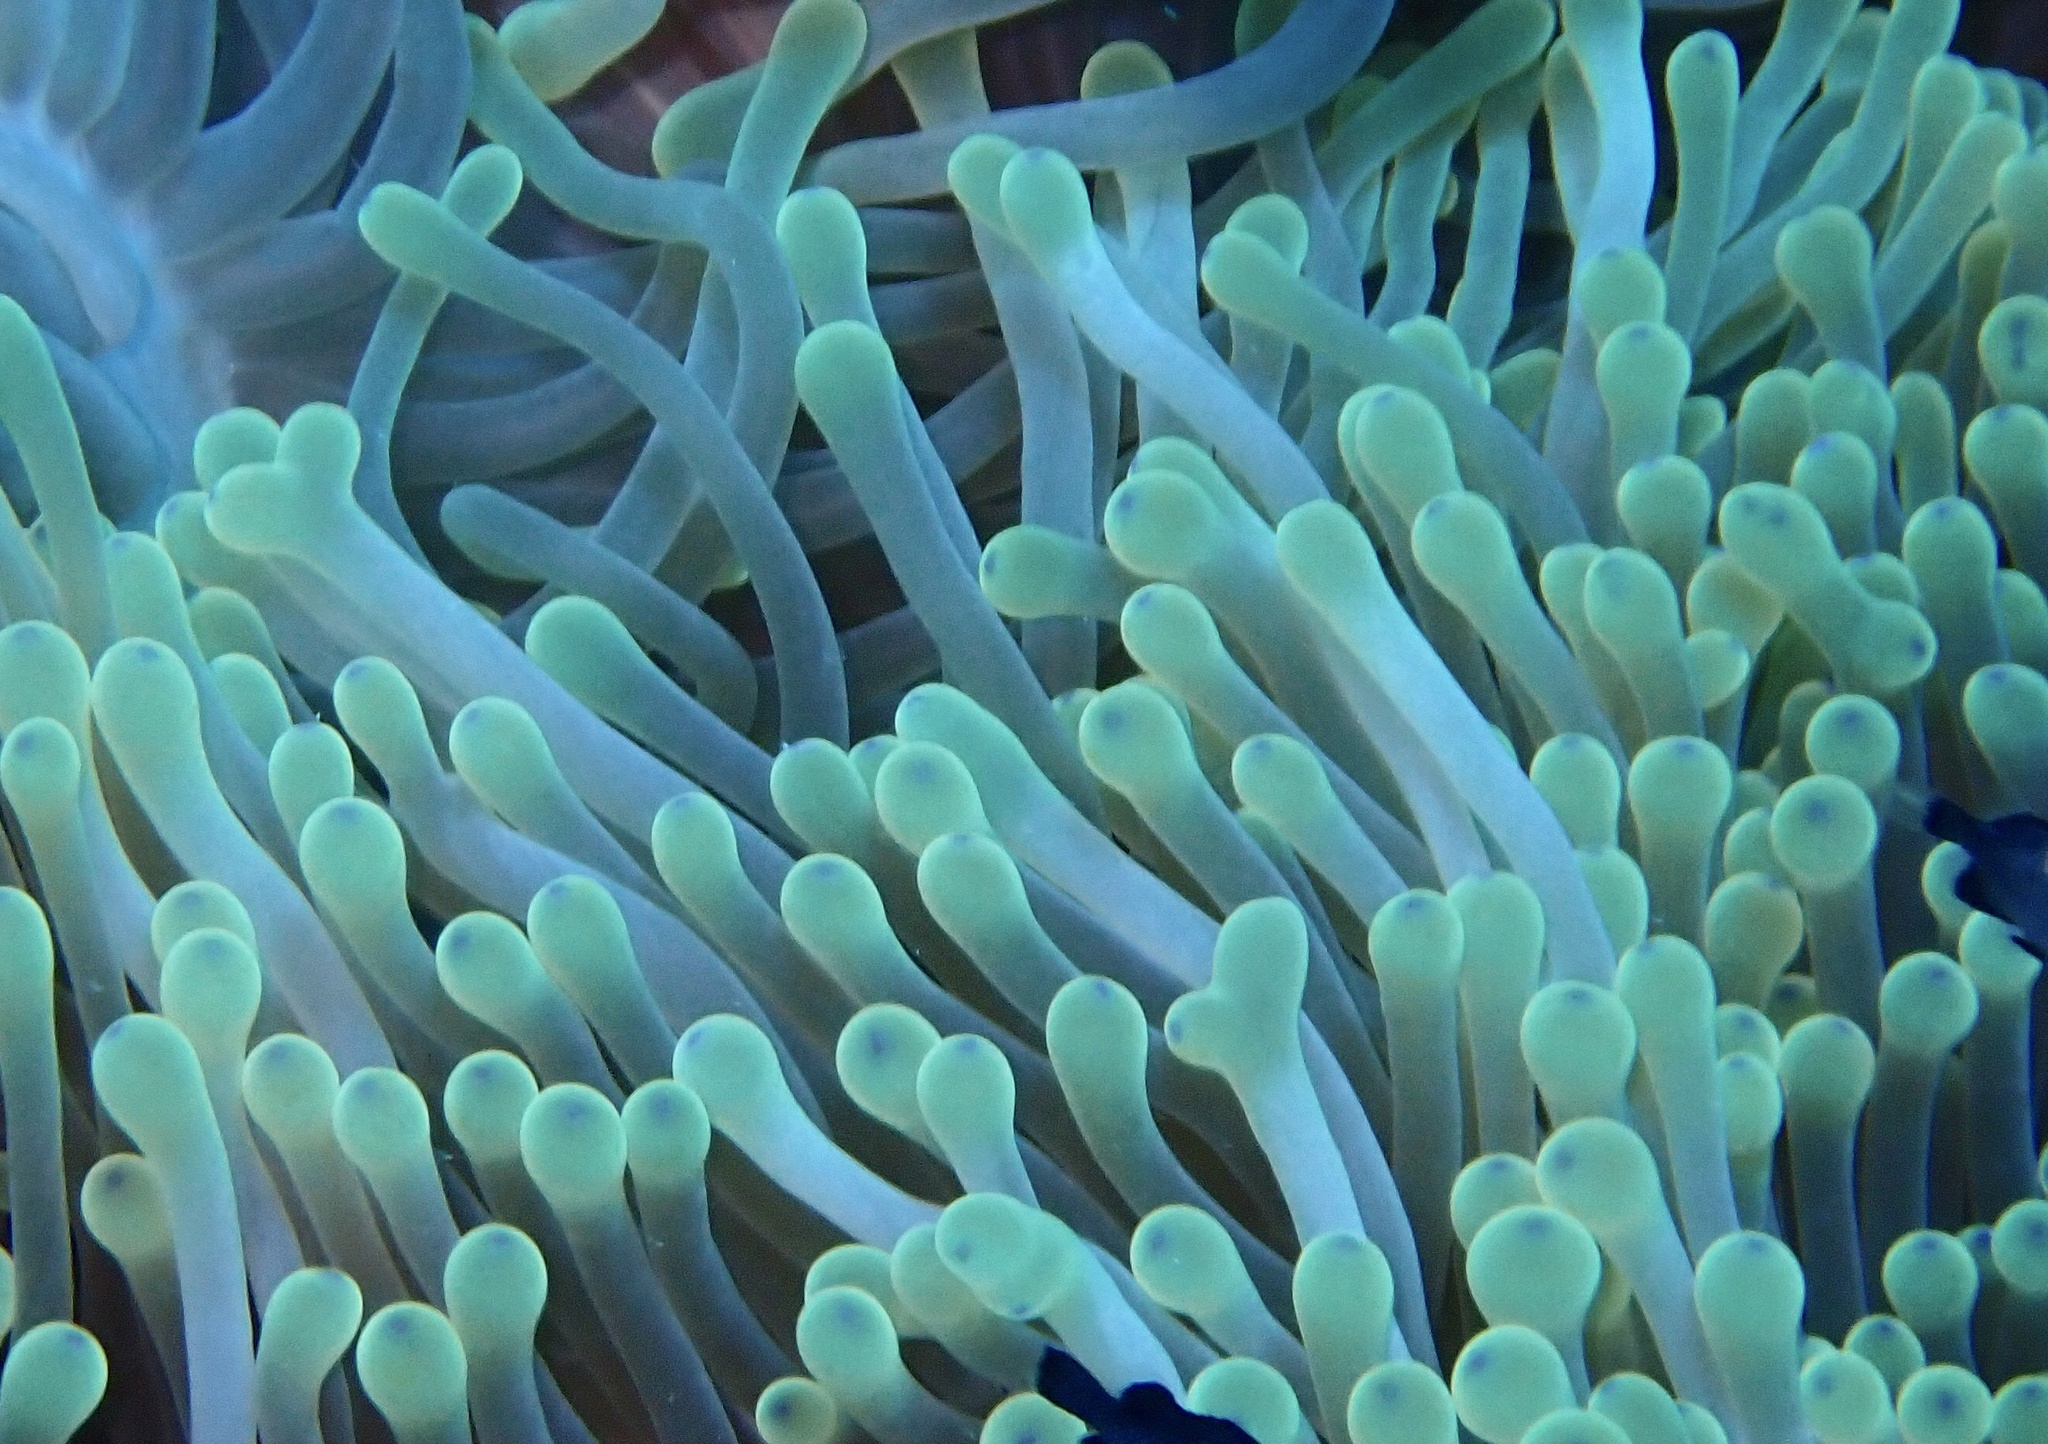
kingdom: Animalia
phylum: Cnidaria
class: Anthozoa
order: Actiniaria
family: Stichodactylidae
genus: Radianthus
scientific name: Radianthus magnifica
